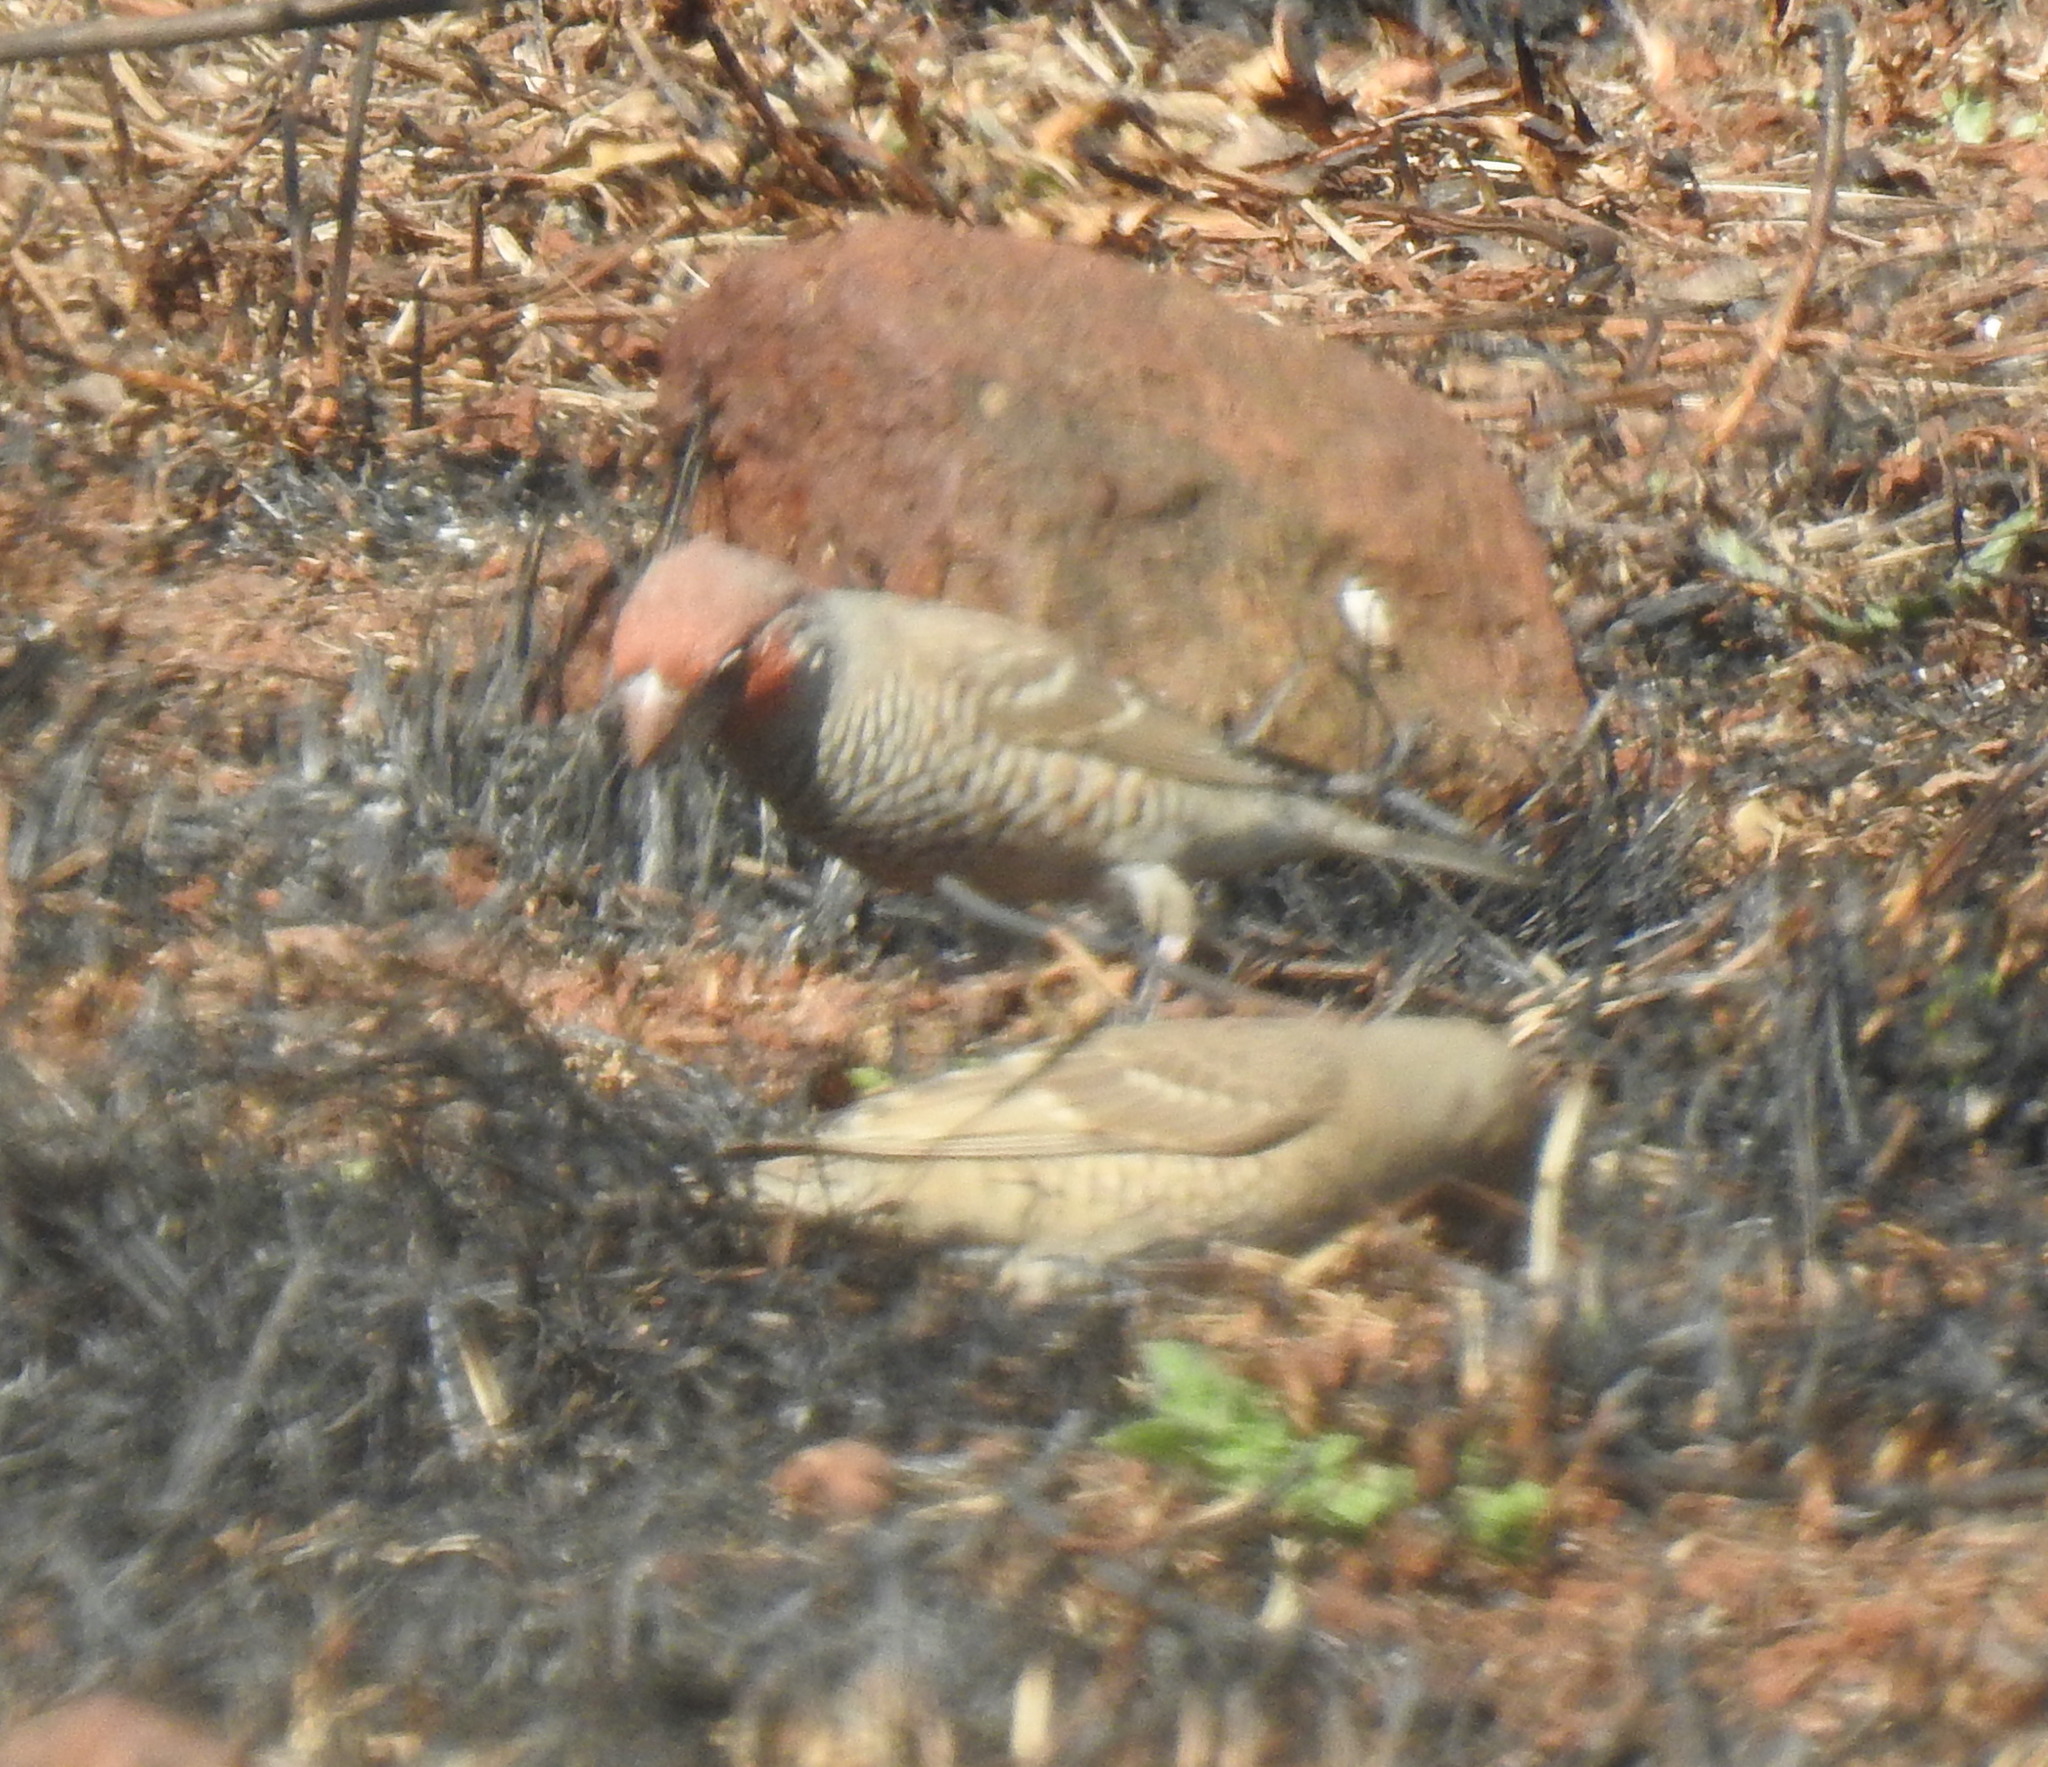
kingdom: Animalia
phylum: Chordata
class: Aves
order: Passeriformes
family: Estrildidae
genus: Amadina
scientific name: Amadina erythrocephala
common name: Red-headed finch
